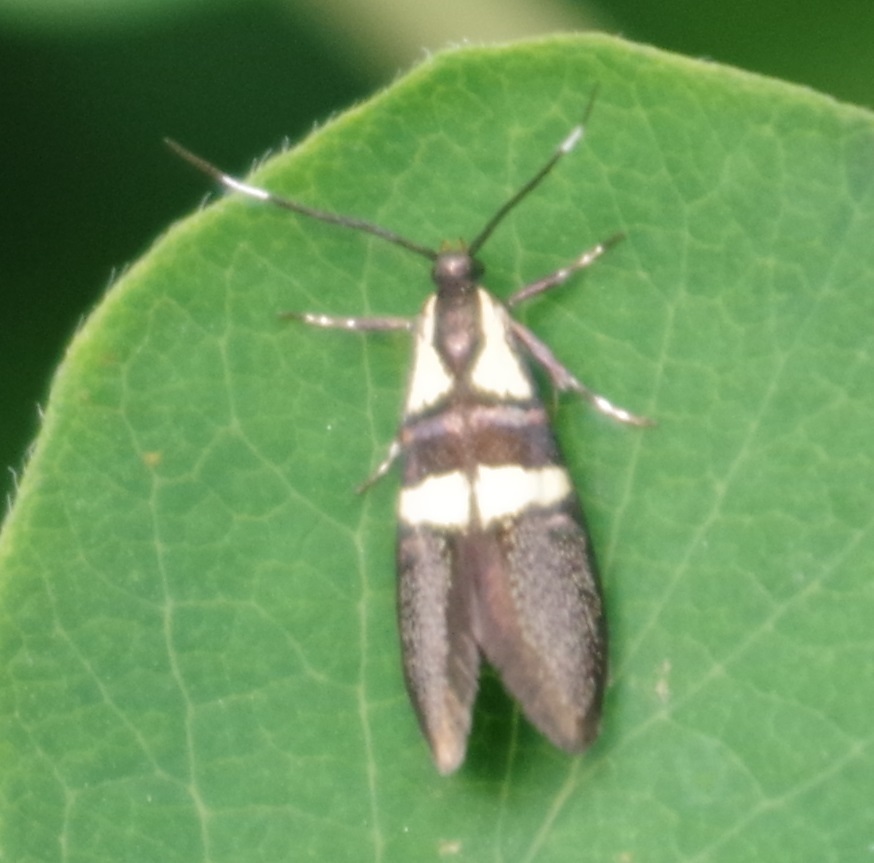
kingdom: Animalia
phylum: Arthropoda
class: Insecta
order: Lepidoptera
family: Oecophoridae
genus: Dafa
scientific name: Dafa oliviella
